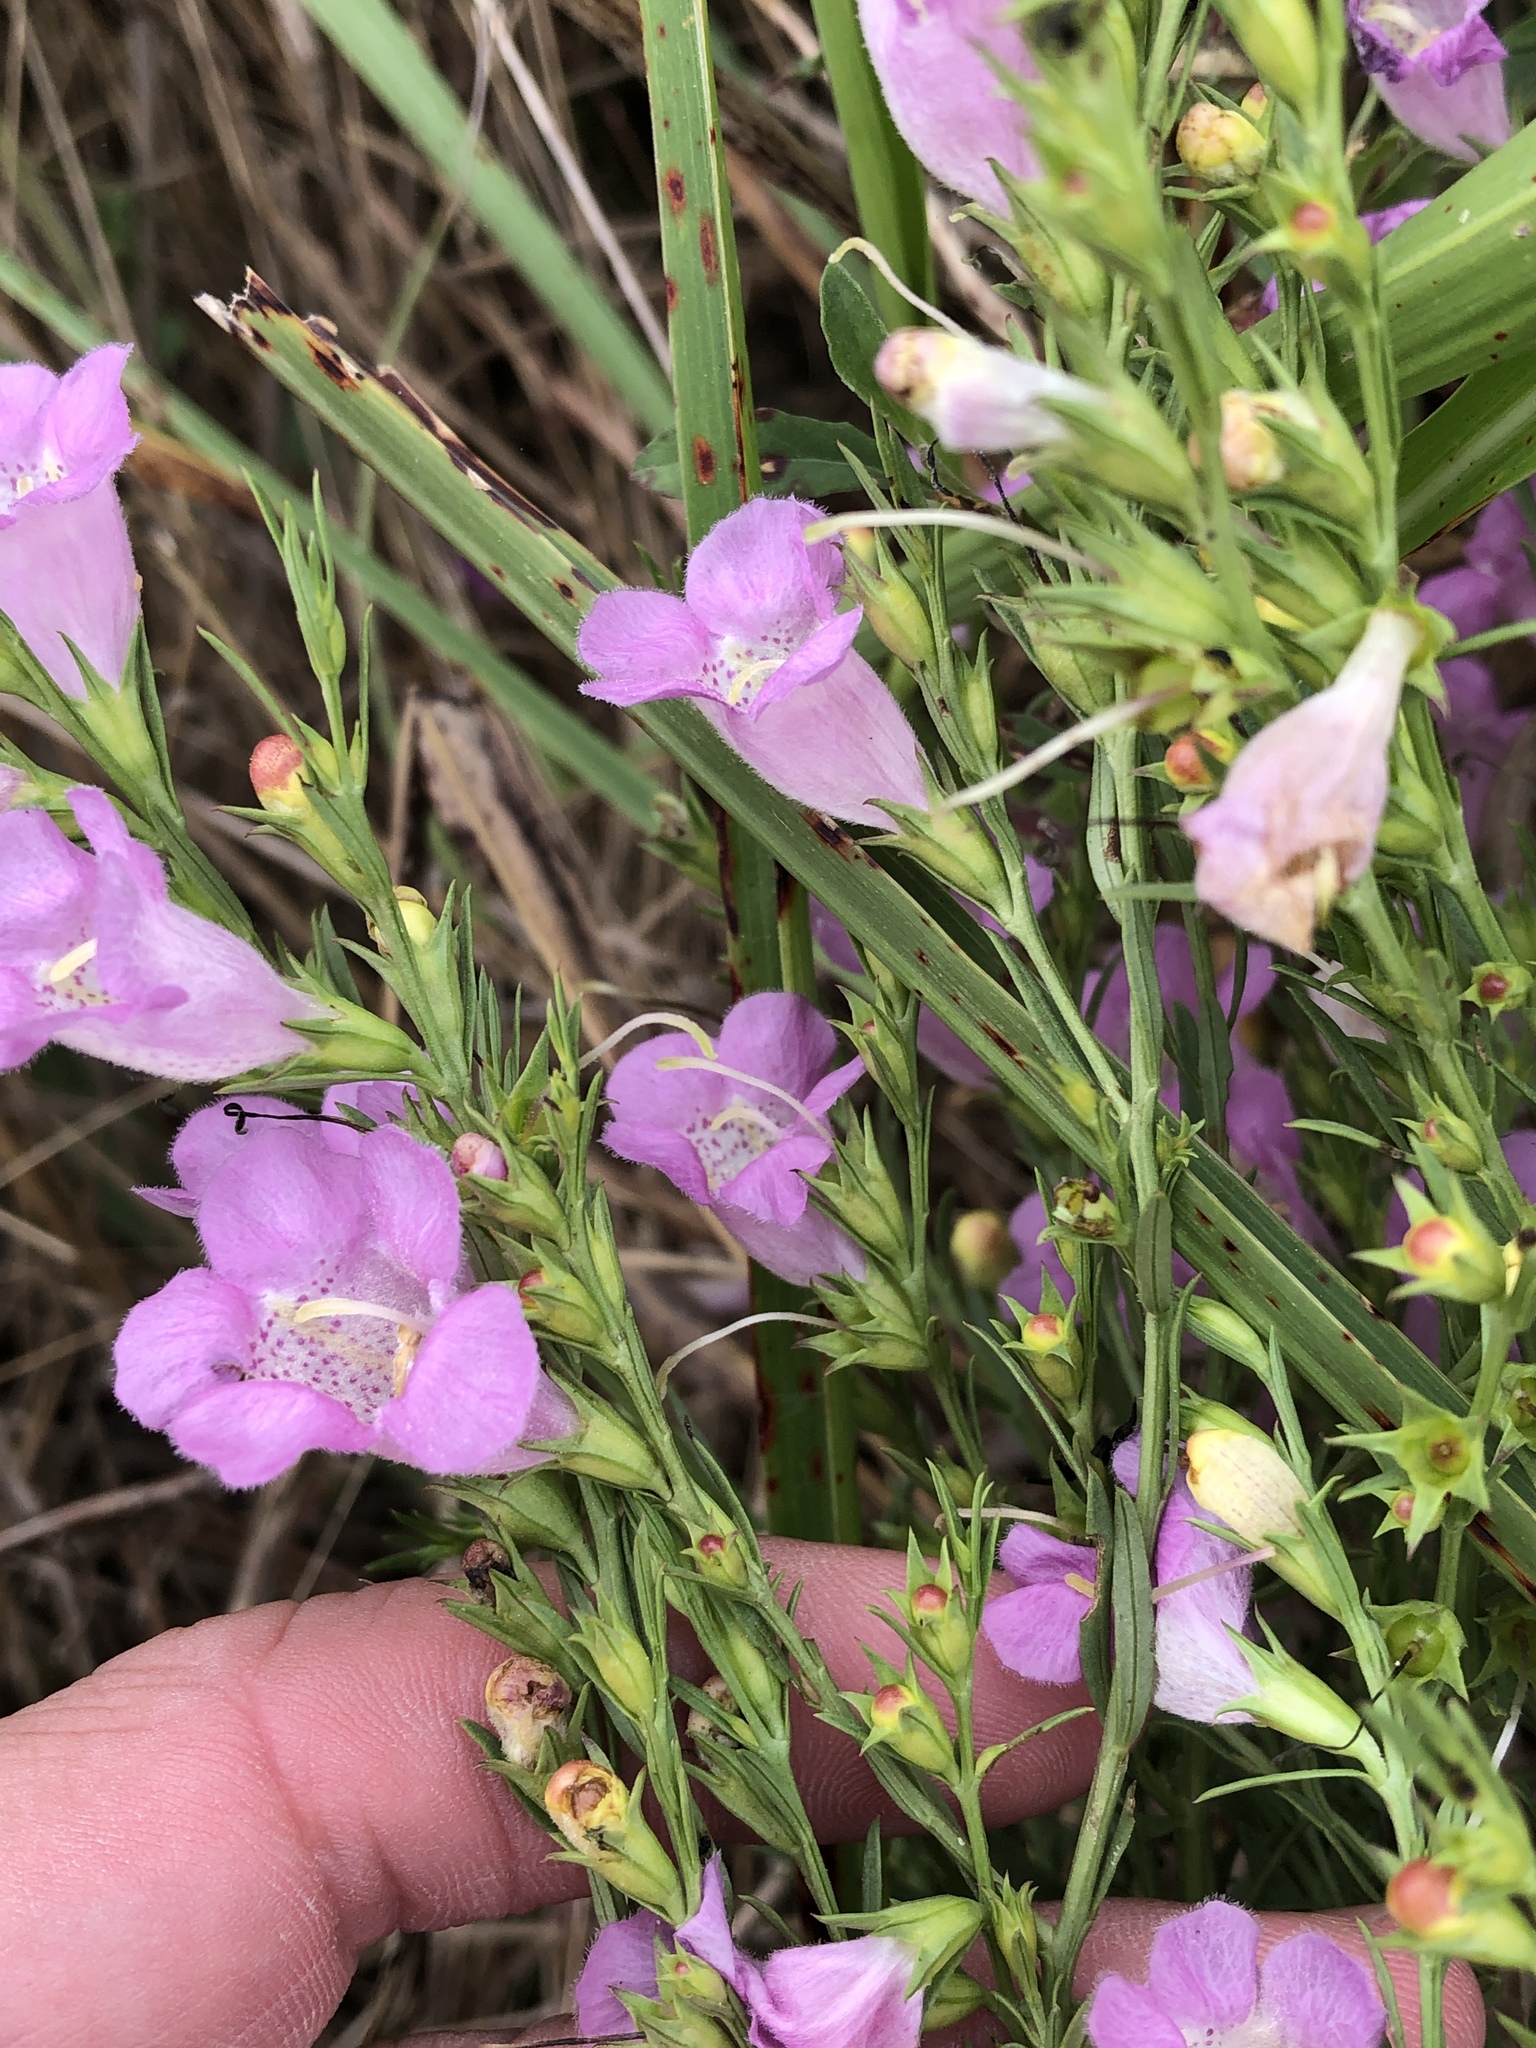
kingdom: Plantae
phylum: Tracheophyta
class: Magnoliopsida
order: Lamiales
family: Orobanchaceae
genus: Agalinis
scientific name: Agalinis heterophylla
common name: Prairie agalinis
